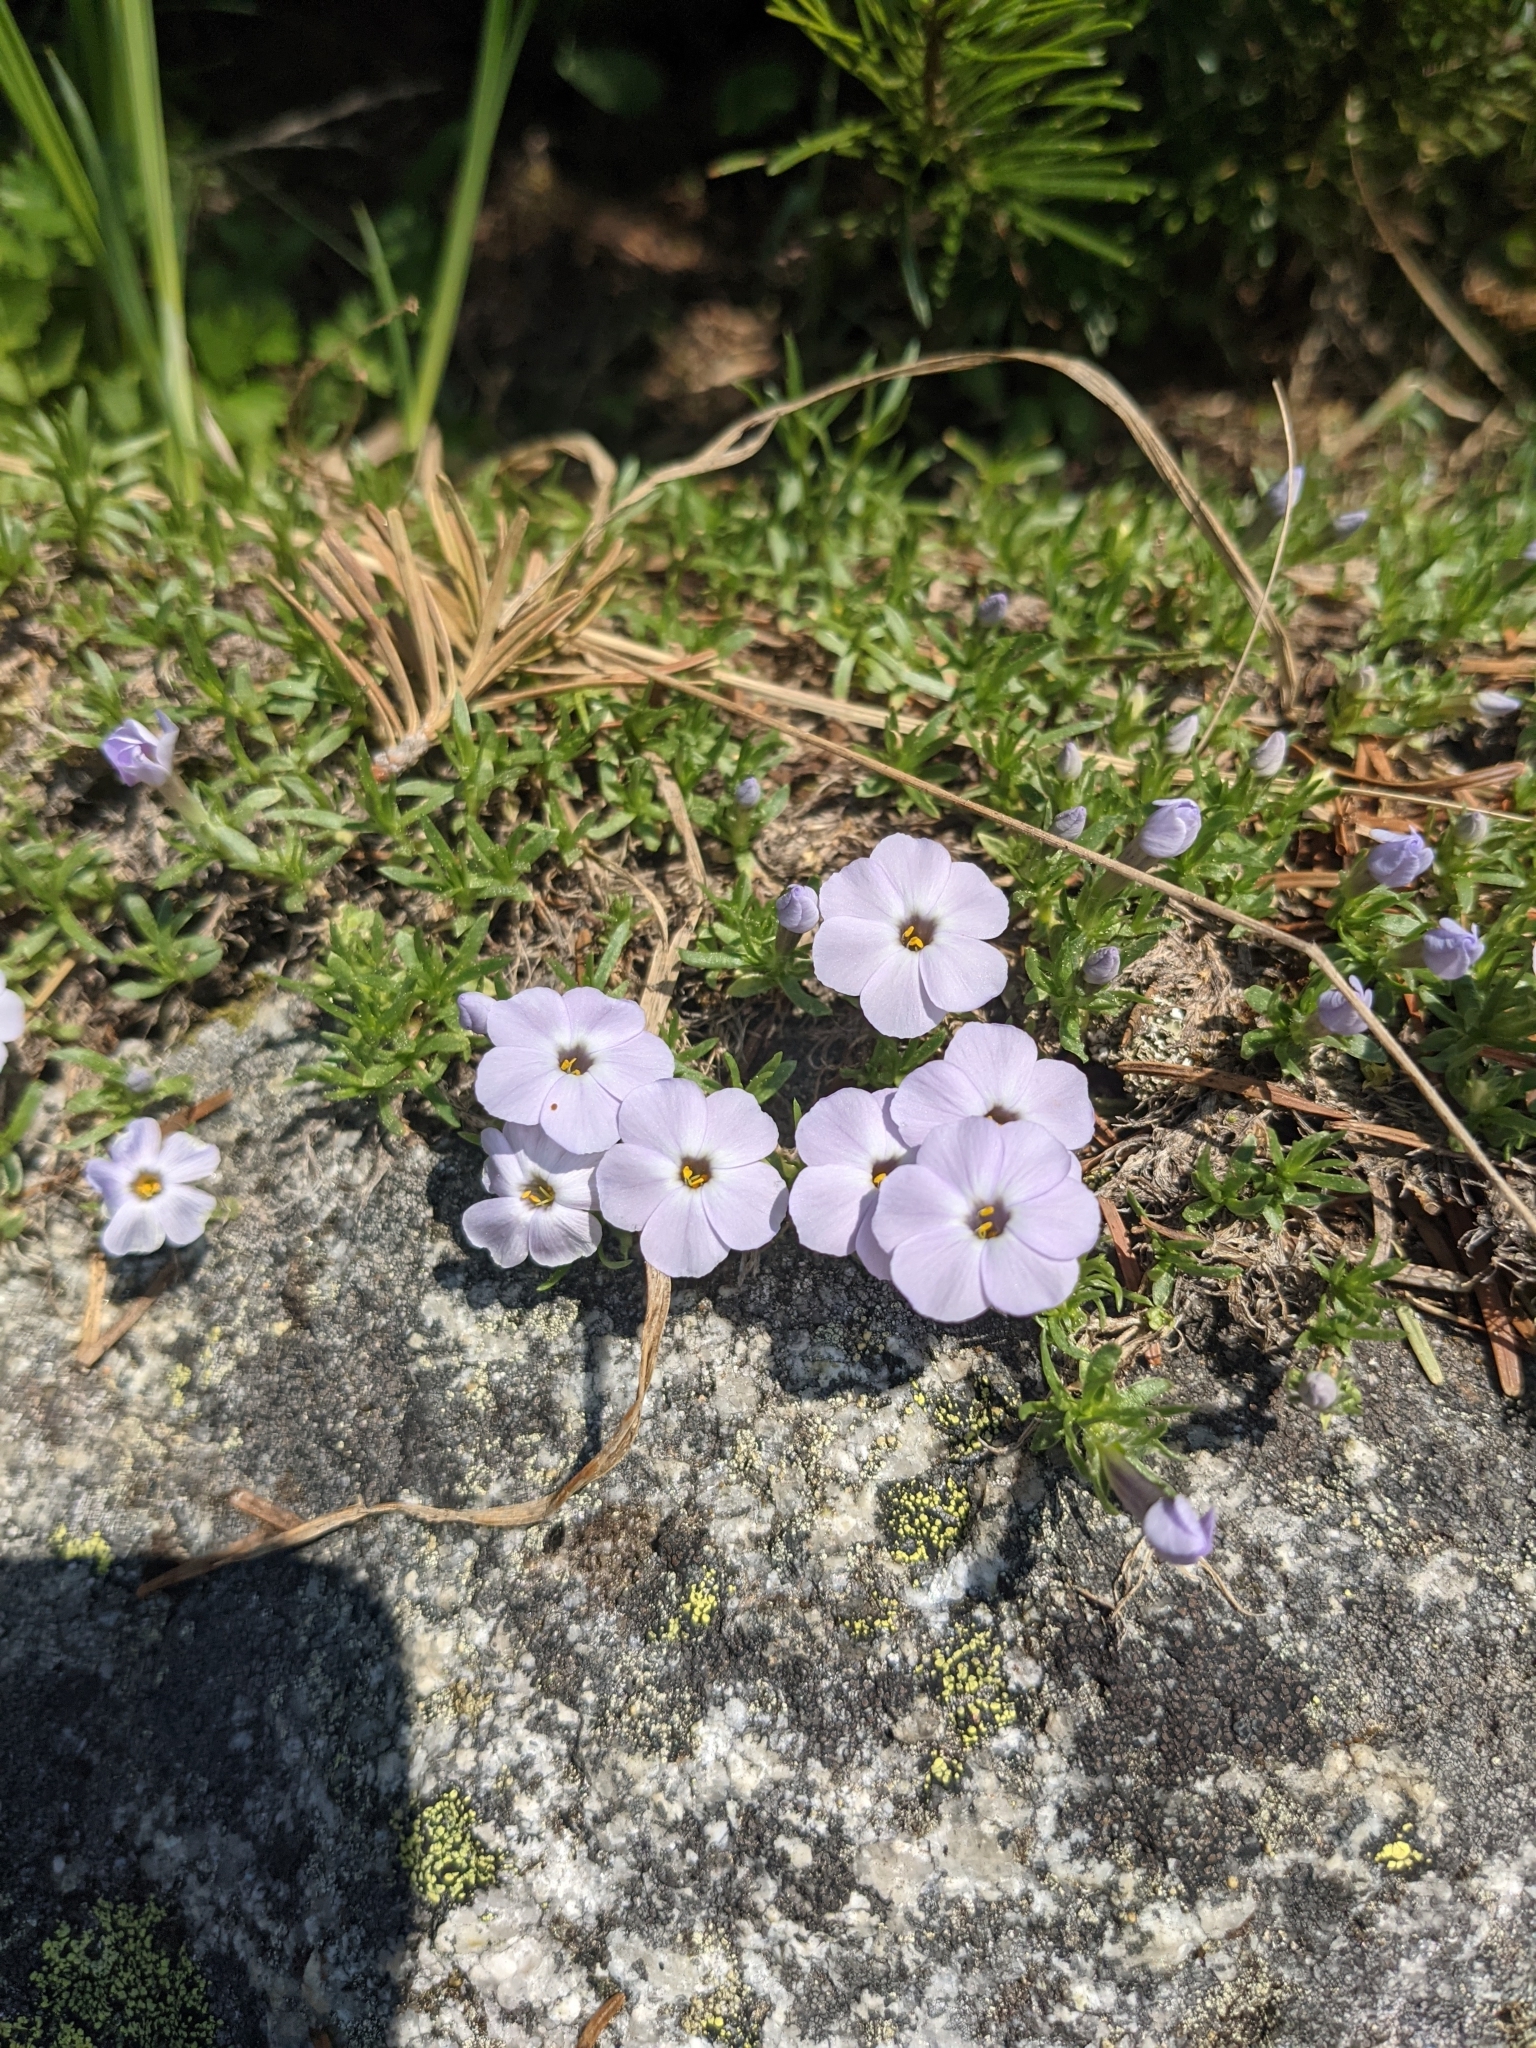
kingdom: Plantae
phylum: Tracheophyta
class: Magnoliopsida
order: Ericales
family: Polemoniaceae
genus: Phlox
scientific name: Phlox diffusa
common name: Mat phlox
